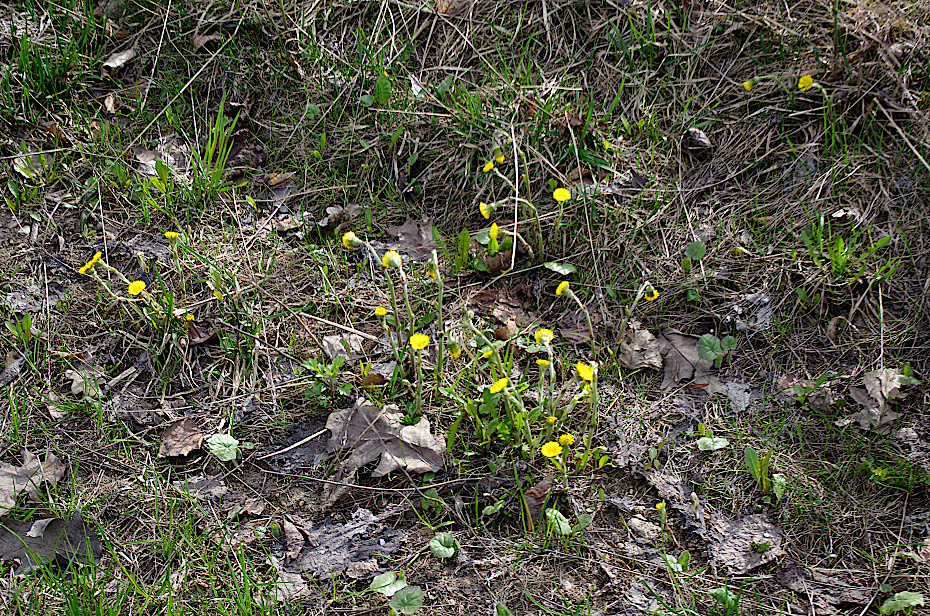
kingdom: Plantae
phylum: Tracheophyta
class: Magnoliopsida
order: Asterales
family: Asteraceae
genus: Tussilago
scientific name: Tussilago farfara
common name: Coltsfoot
